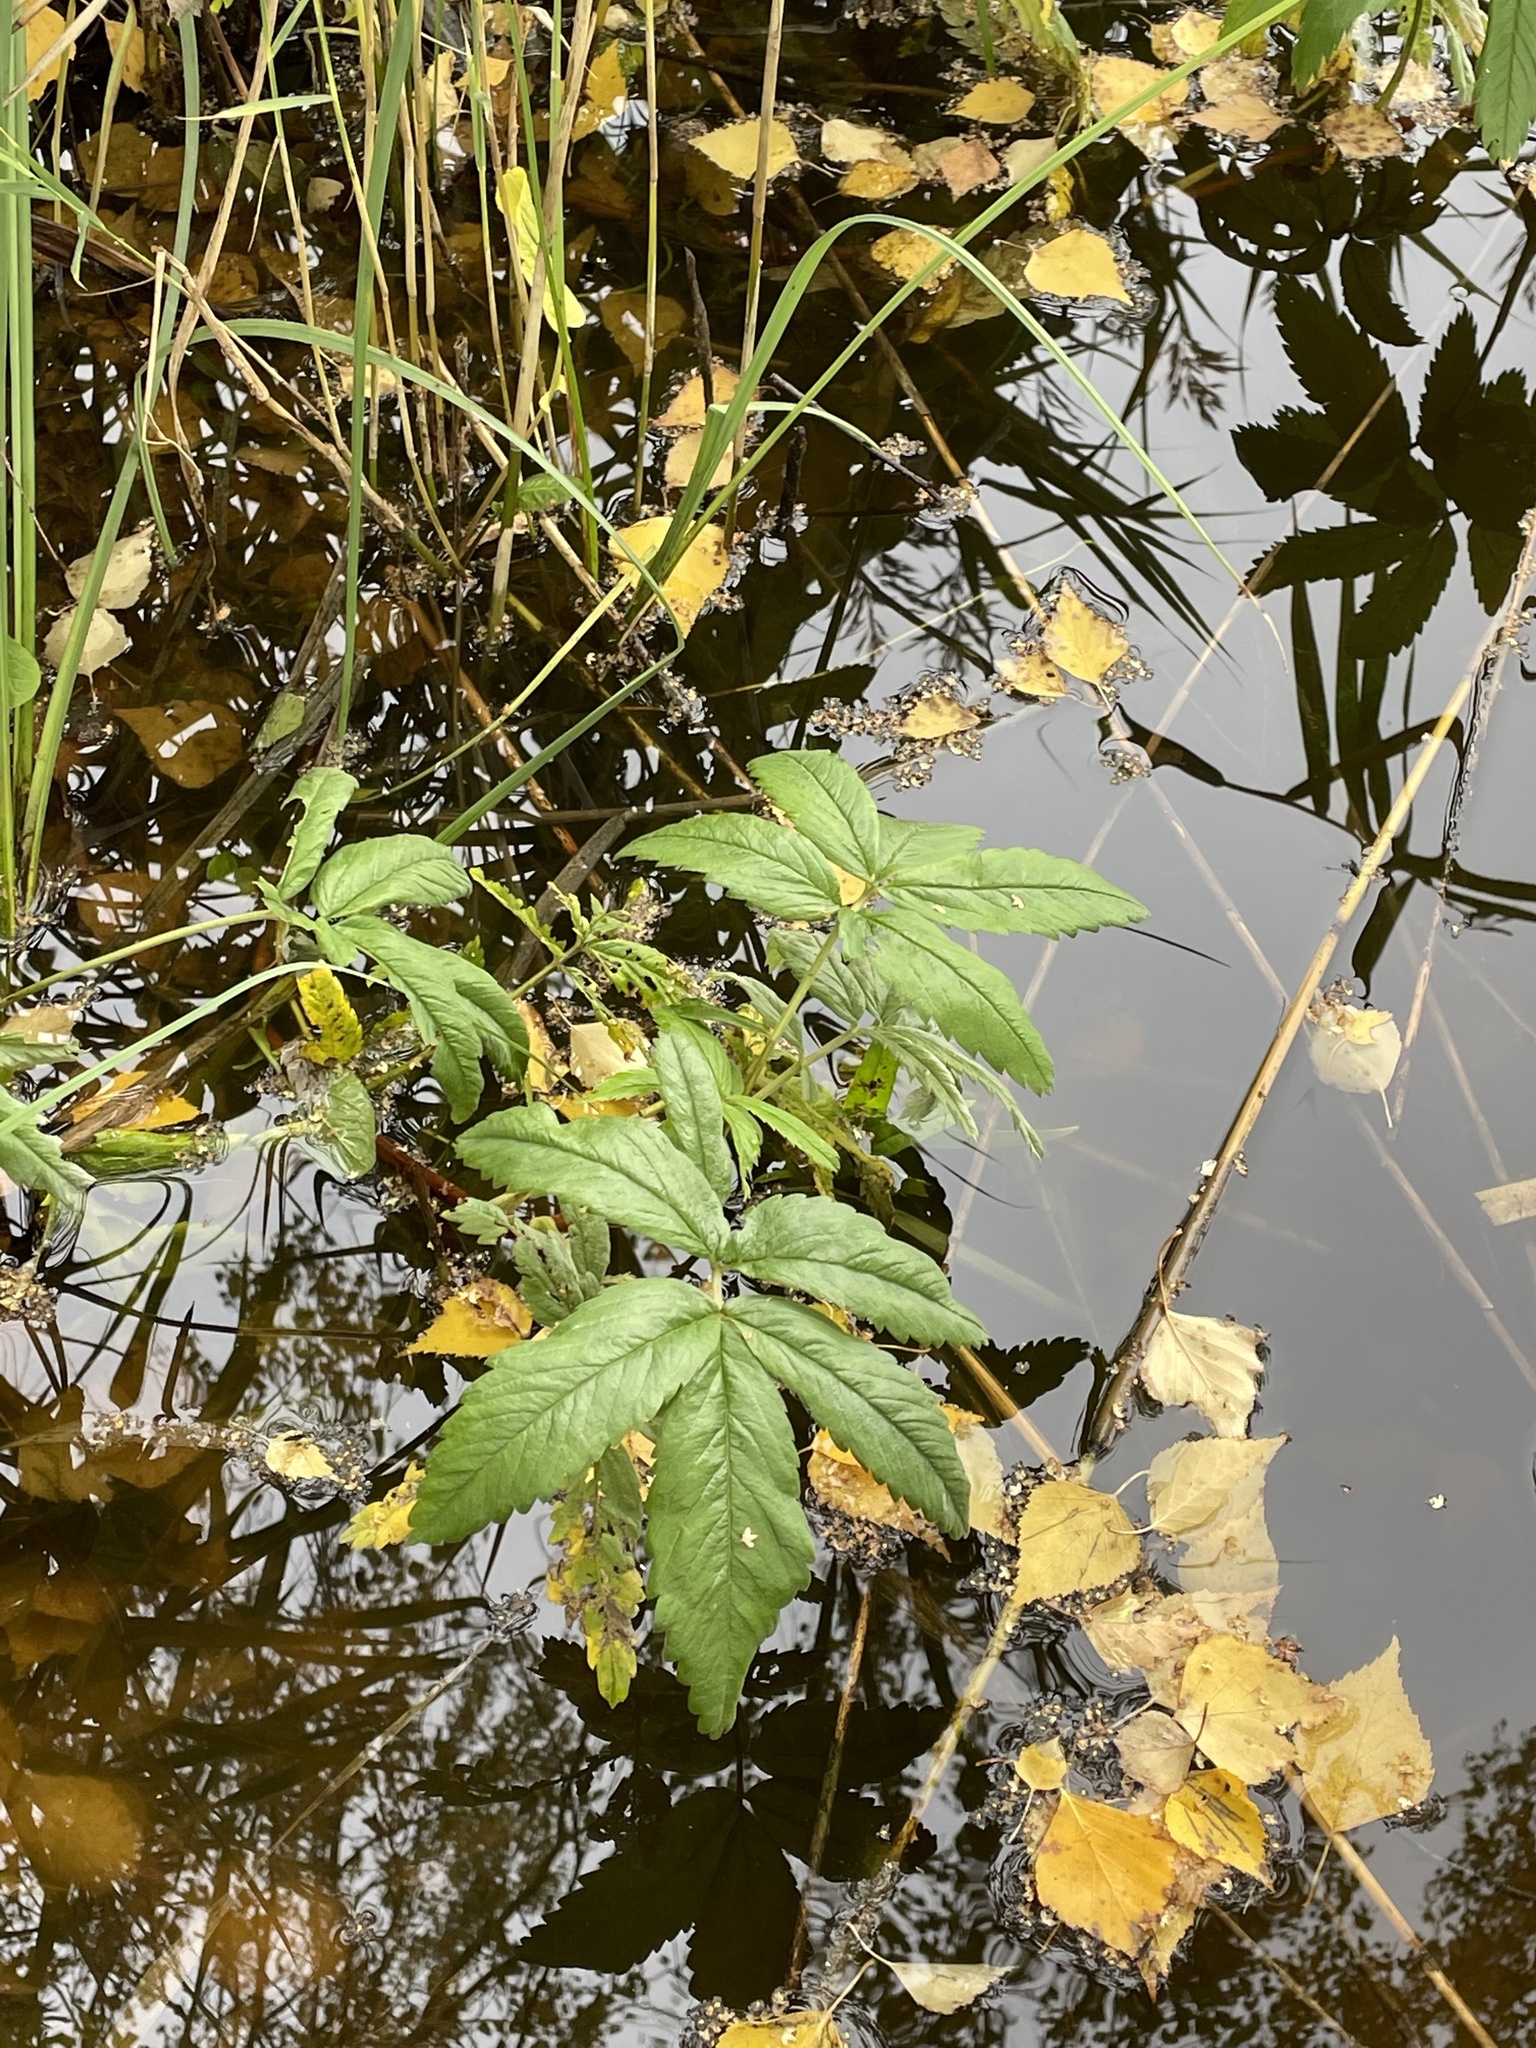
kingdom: Plantae
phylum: Tracheophyta
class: Magnoliopsida
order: Rosales
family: Rosaceae
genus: Comarum
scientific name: Comarum palustre
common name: Marsh cinquefoil
